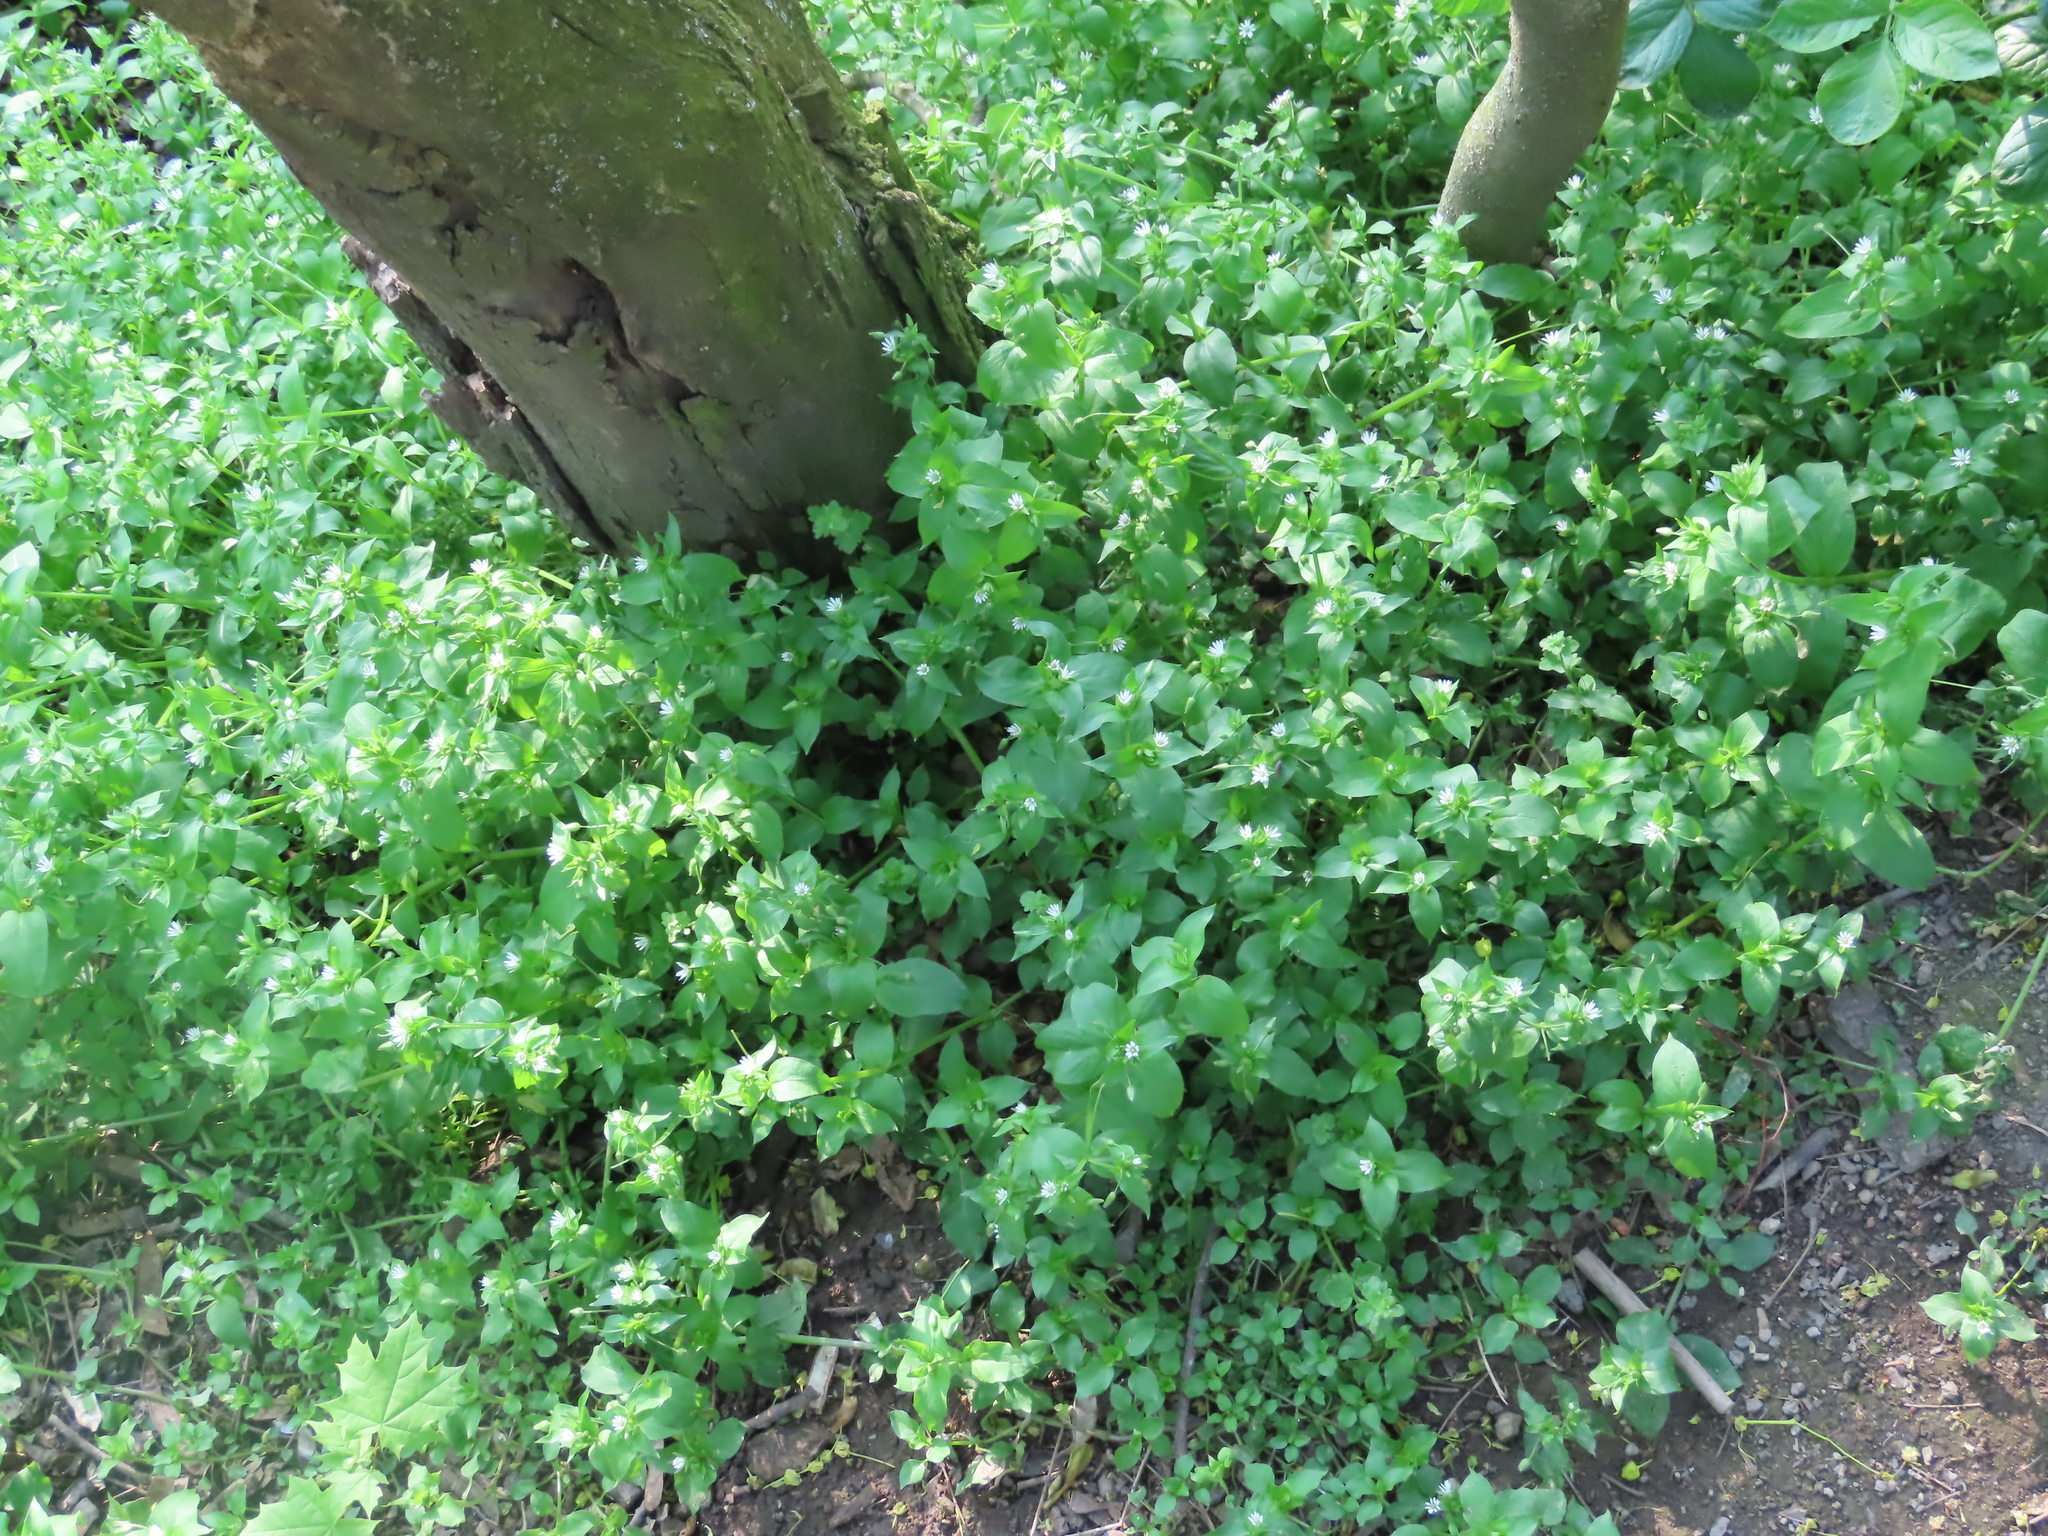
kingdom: Plantae
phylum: Tracheophyta
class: Magnoliopsida
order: Caryophyllales
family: Caryophyllaceae
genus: Stellaria
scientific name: Stellaria media
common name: Common chickweed
